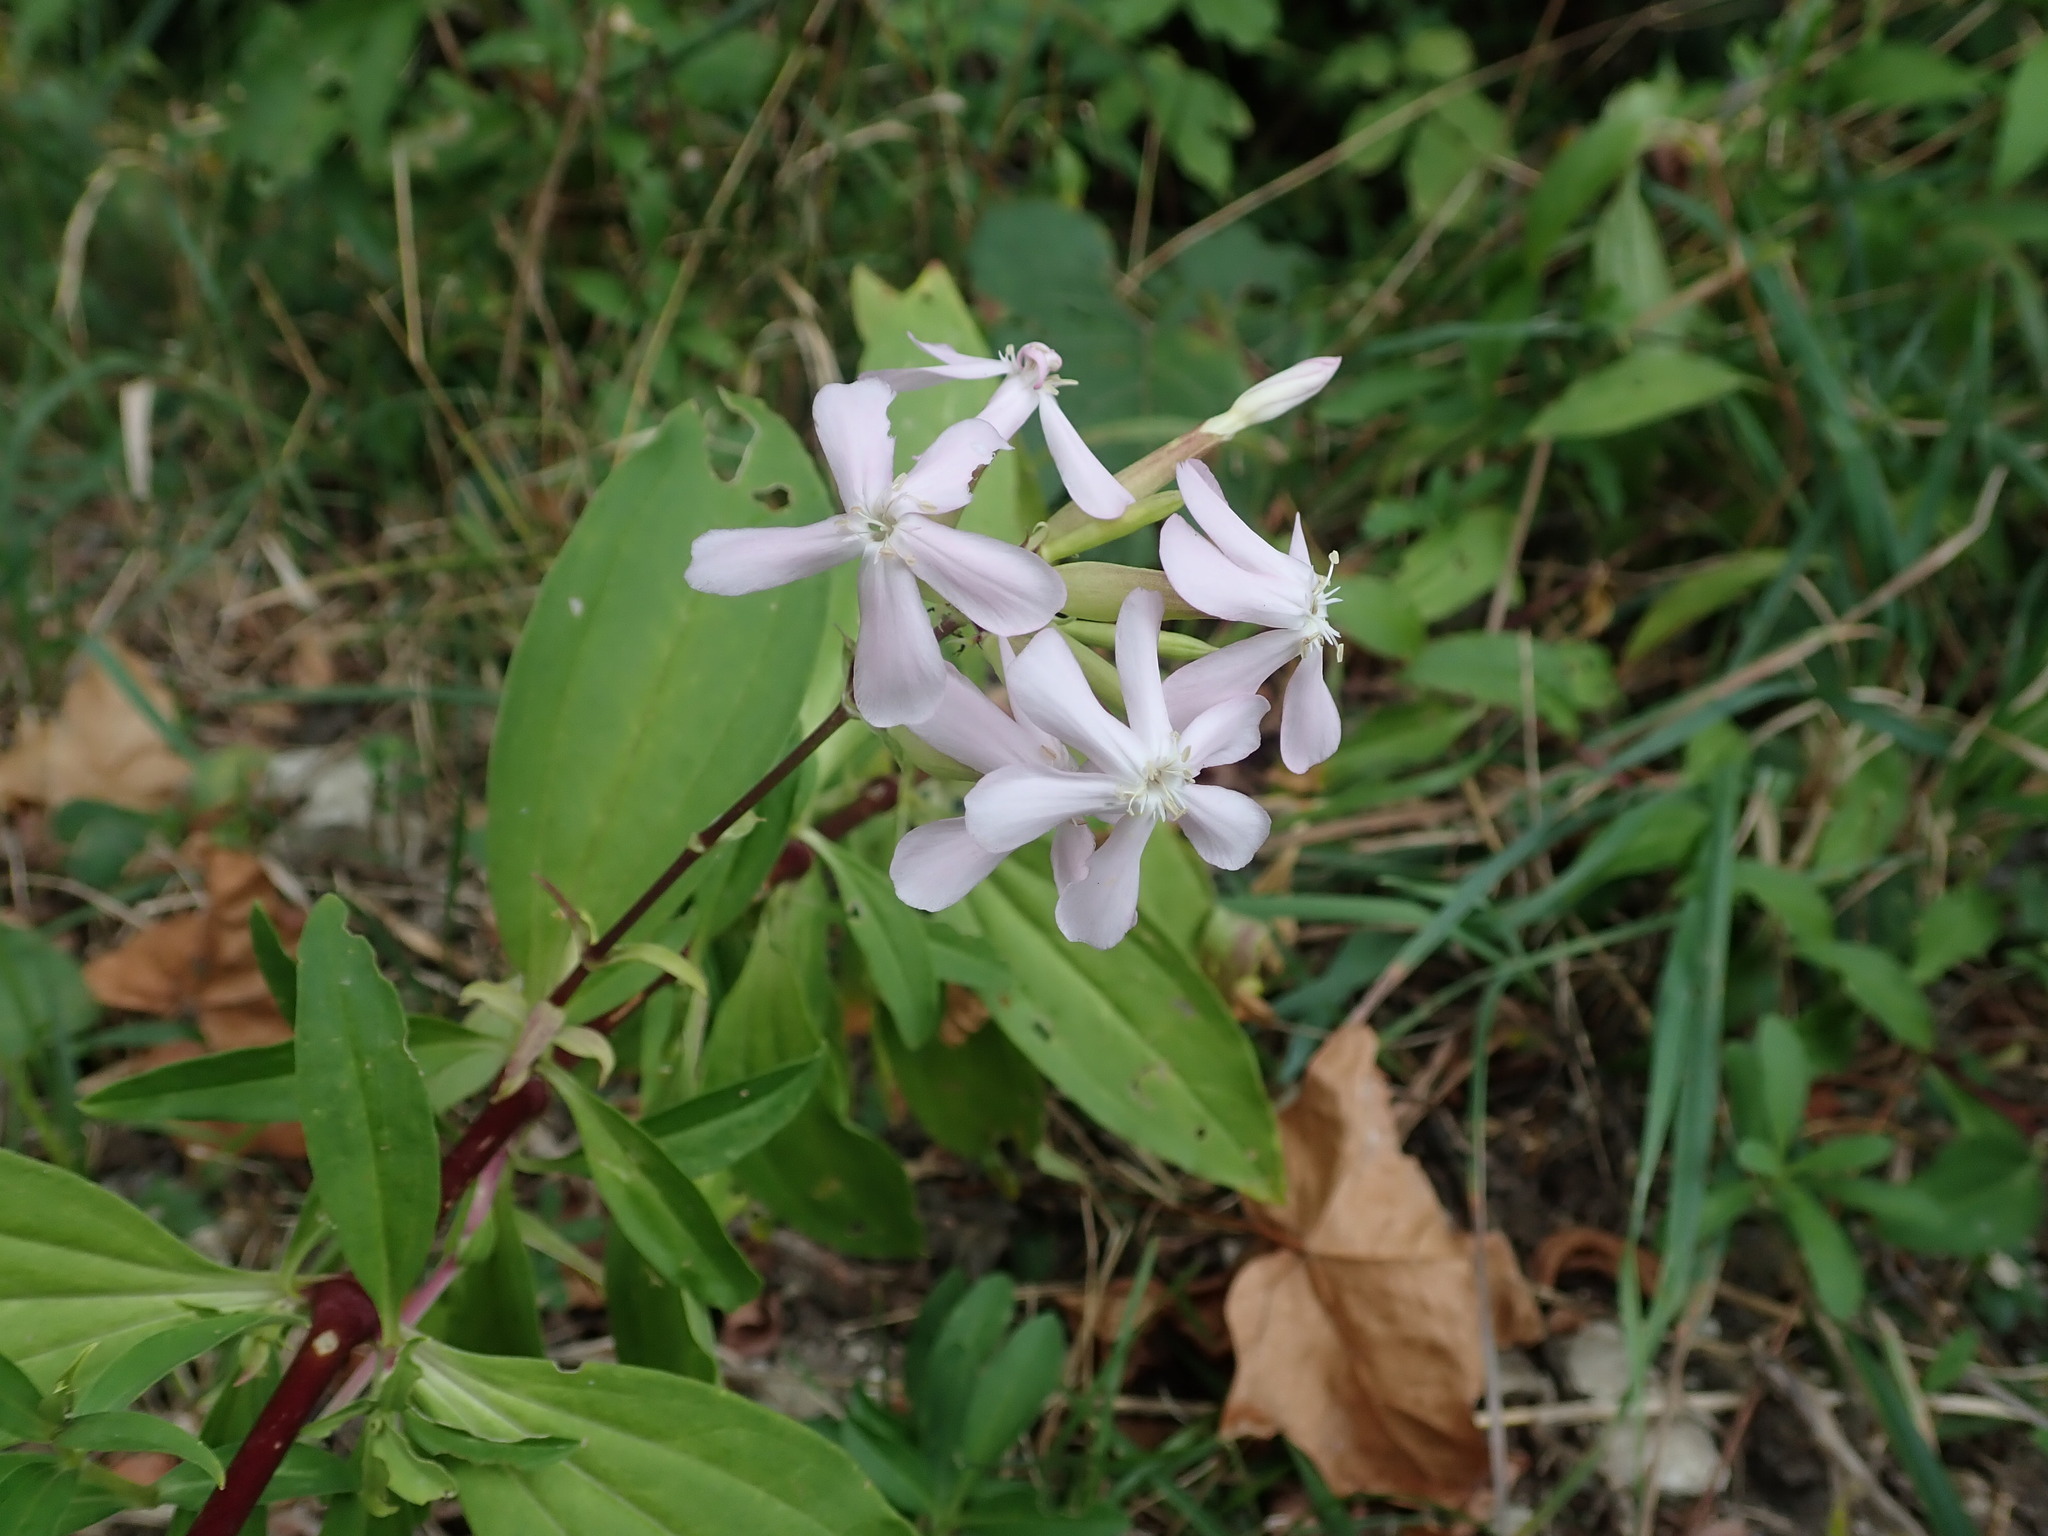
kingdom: Plantae
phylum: Tracheophyta
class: Magnoliopsida
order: Caryophyllales
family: Caryophyllaceae
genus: Saponaria
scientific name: Saponaria officinalis
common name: Soapwort
